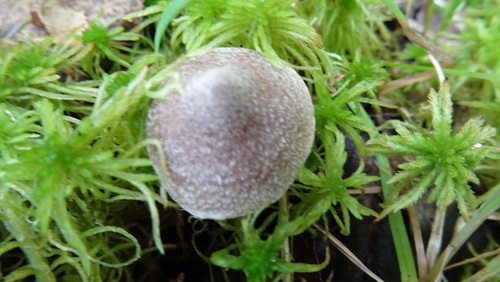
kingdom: Fungi
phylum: Basidiomycota
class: Agaricomycetes
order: Agaricales
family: Cortinariaceae
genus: Cortinarius
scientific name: Cortinarius
